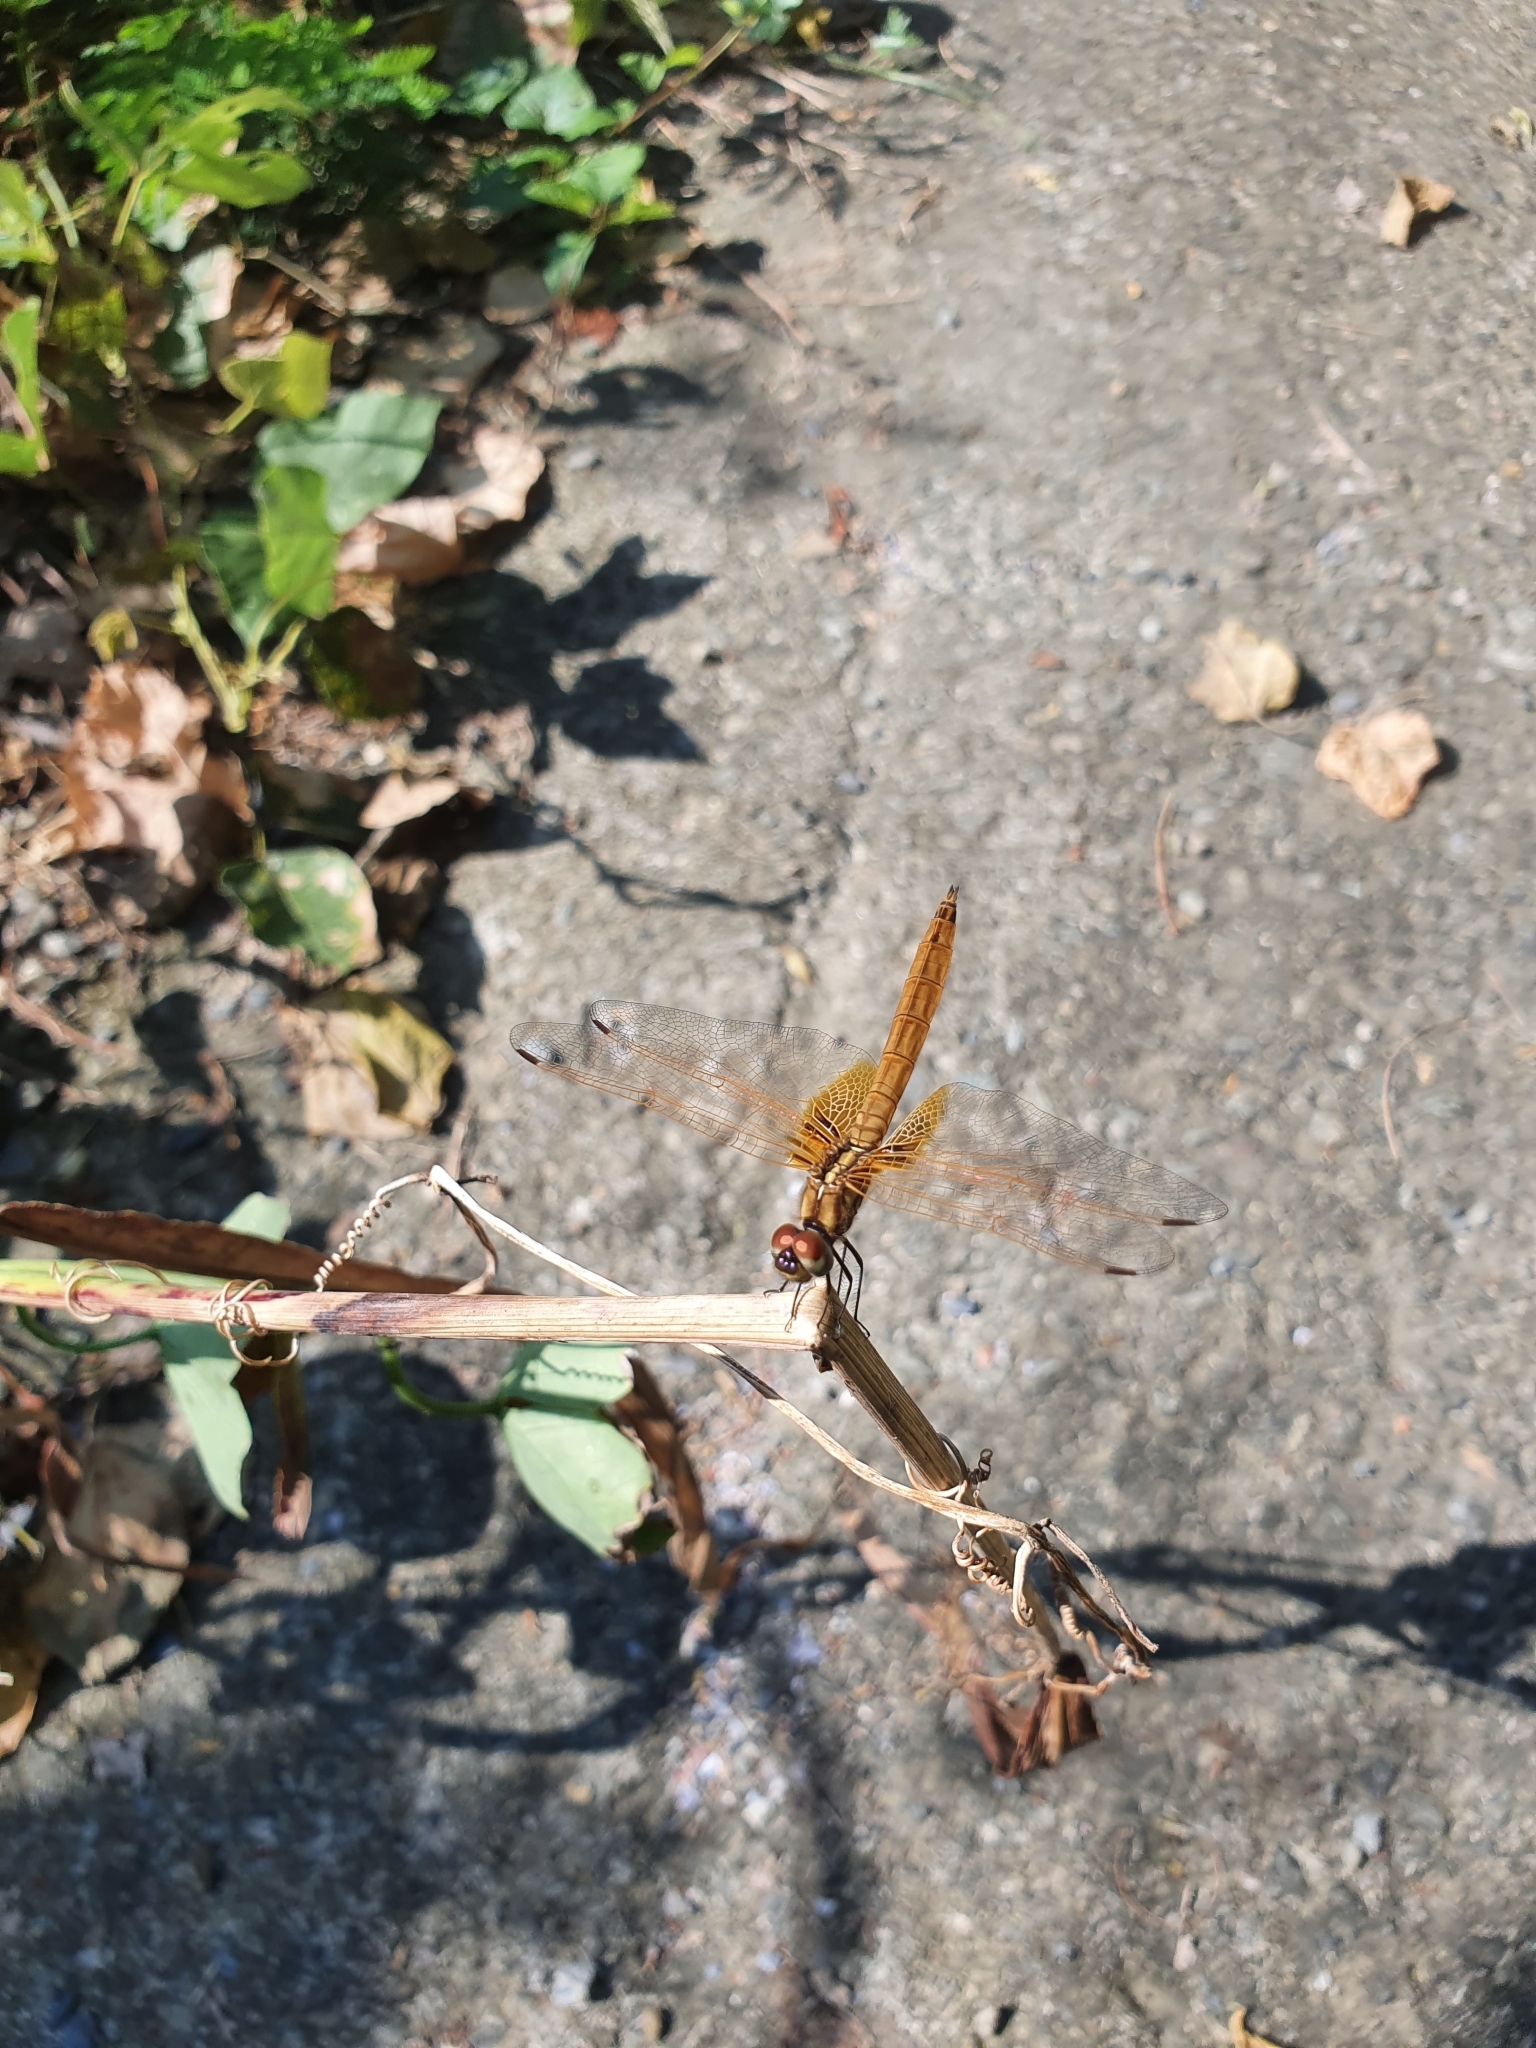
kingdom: Animalia
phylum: Arthropoda
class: Insecta
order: Odonata
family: Libellulidae
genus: Brachythemis
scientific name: Brachythemis contaminata
